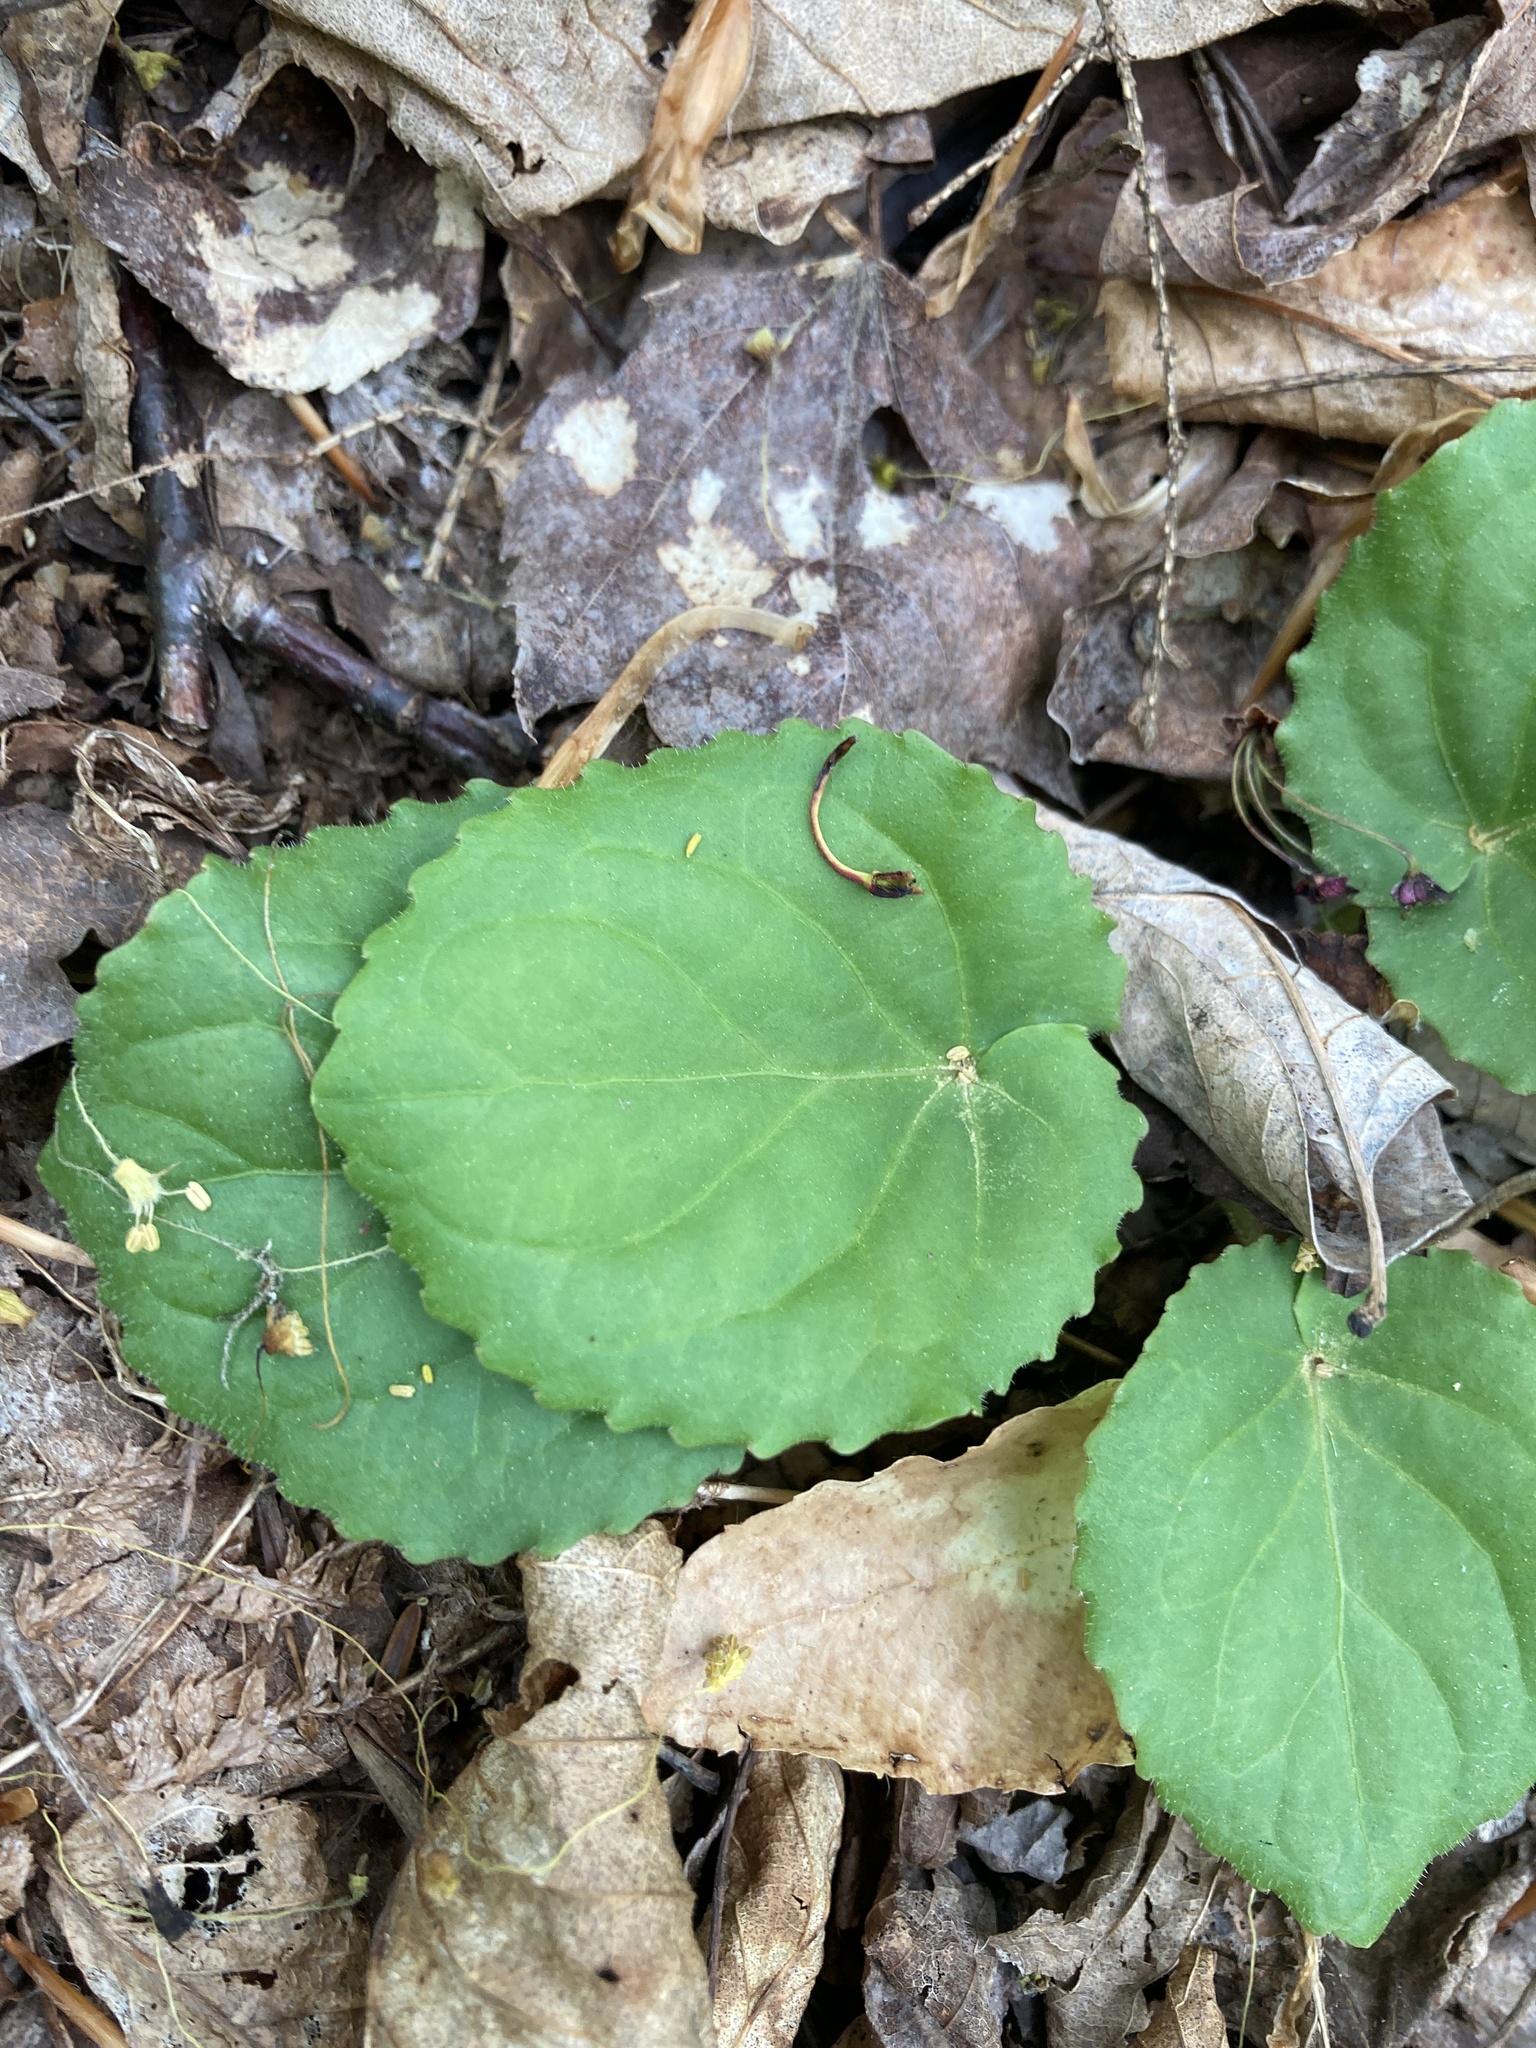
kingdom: Plantae
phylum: Tracheophyta
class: Magnoliopsida
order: Malpighiales
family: Violaceae
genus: Viola
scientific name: Viola rotundifolia
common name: Early yellow violet
